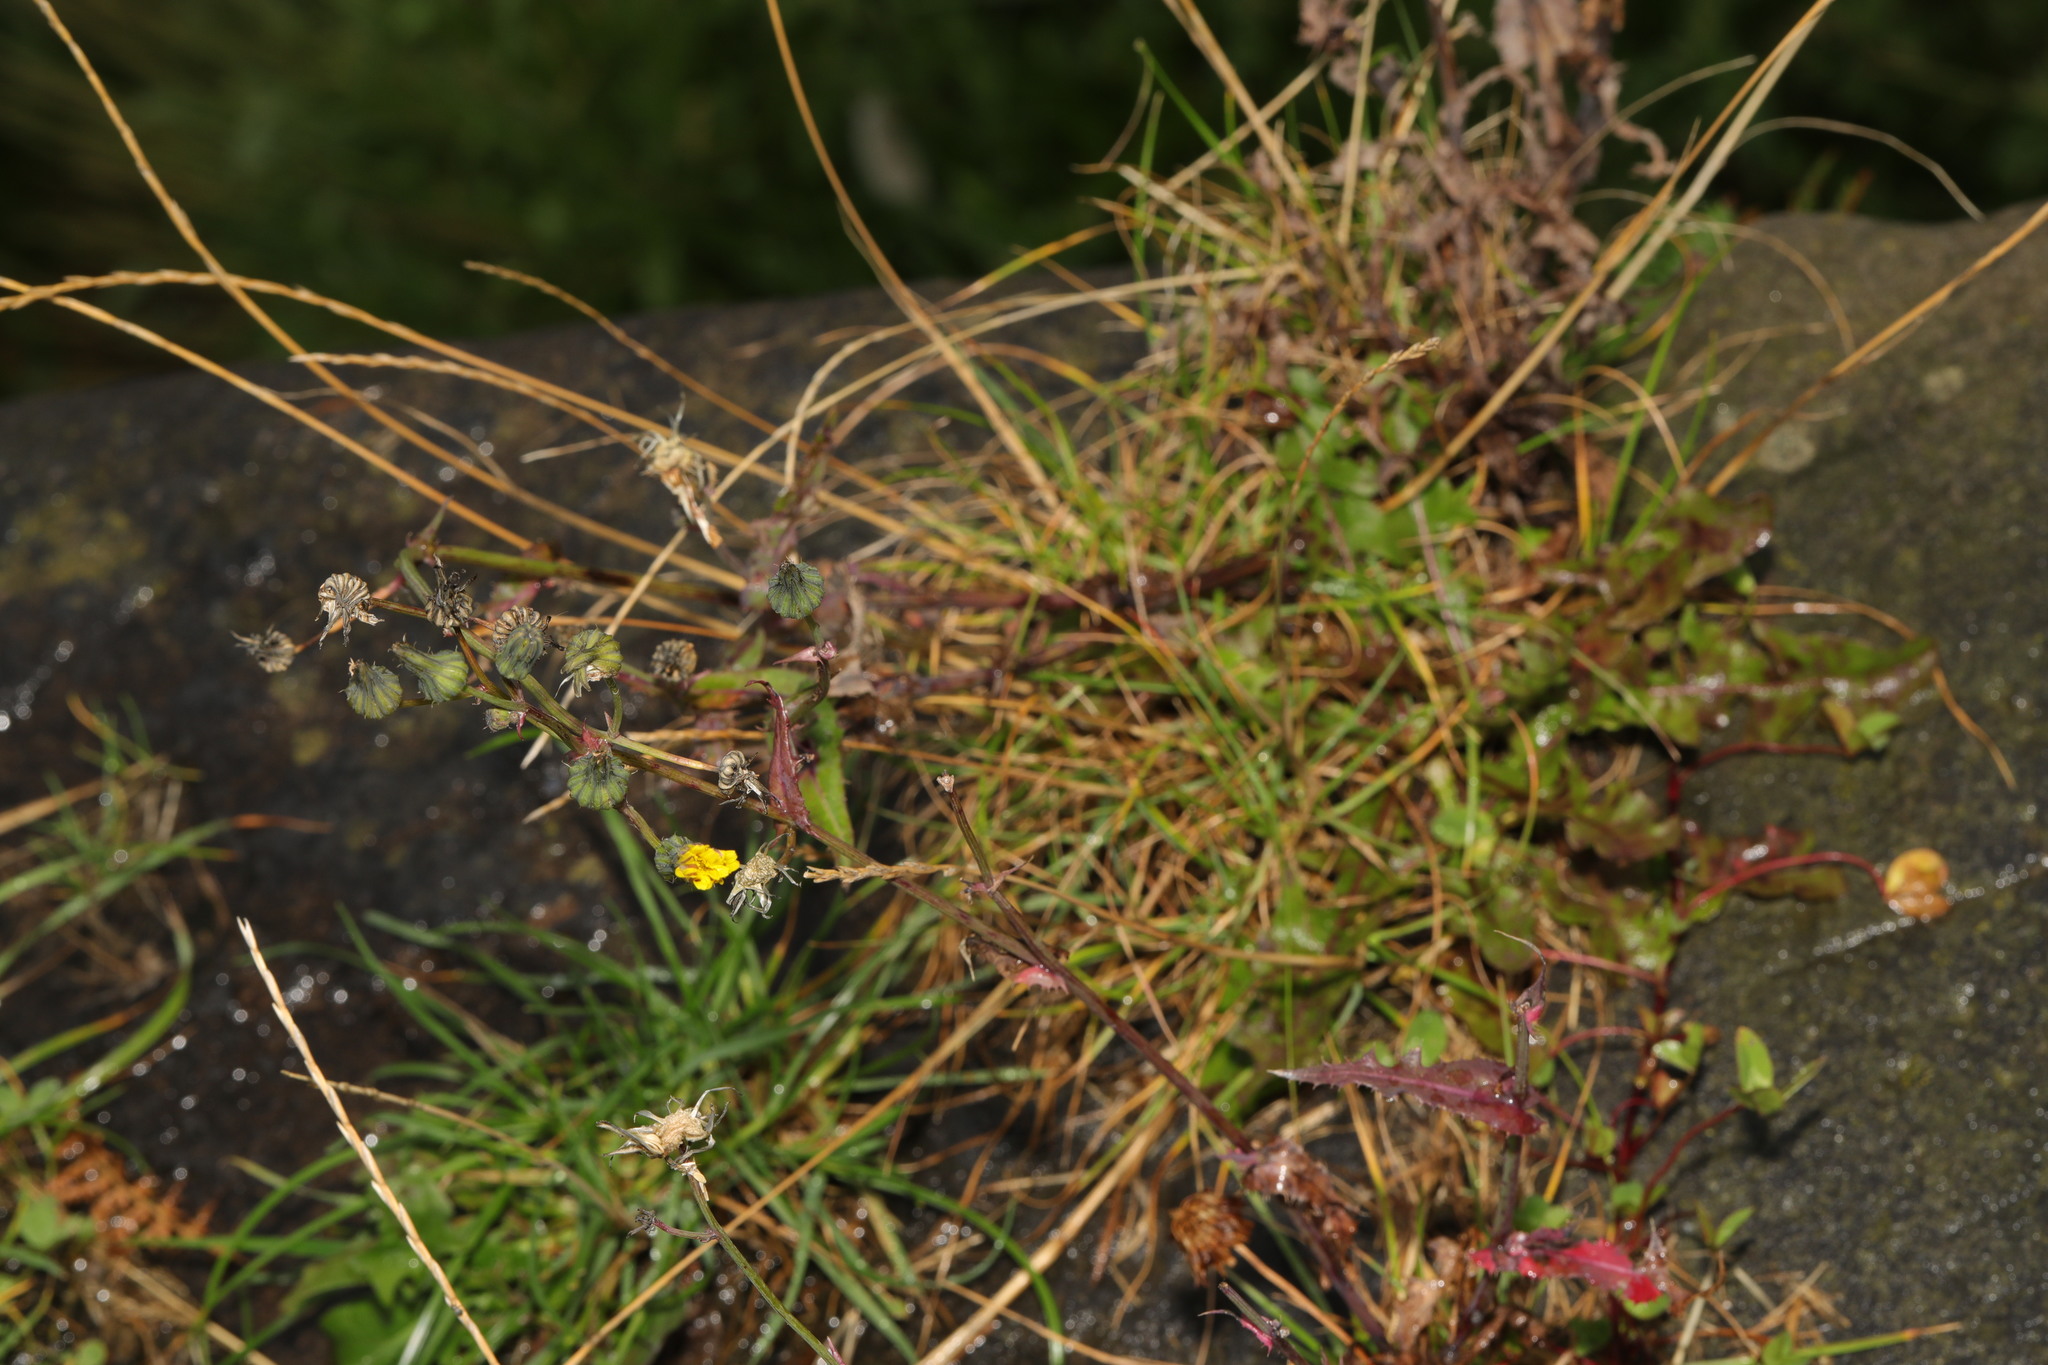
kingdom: Plantae
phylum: Tracheophyta
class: Magnoliopsida
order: Asterales
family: Asteraceae
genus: Sonchus
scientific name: Sonchus oleraceus
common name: Common sowthistle
